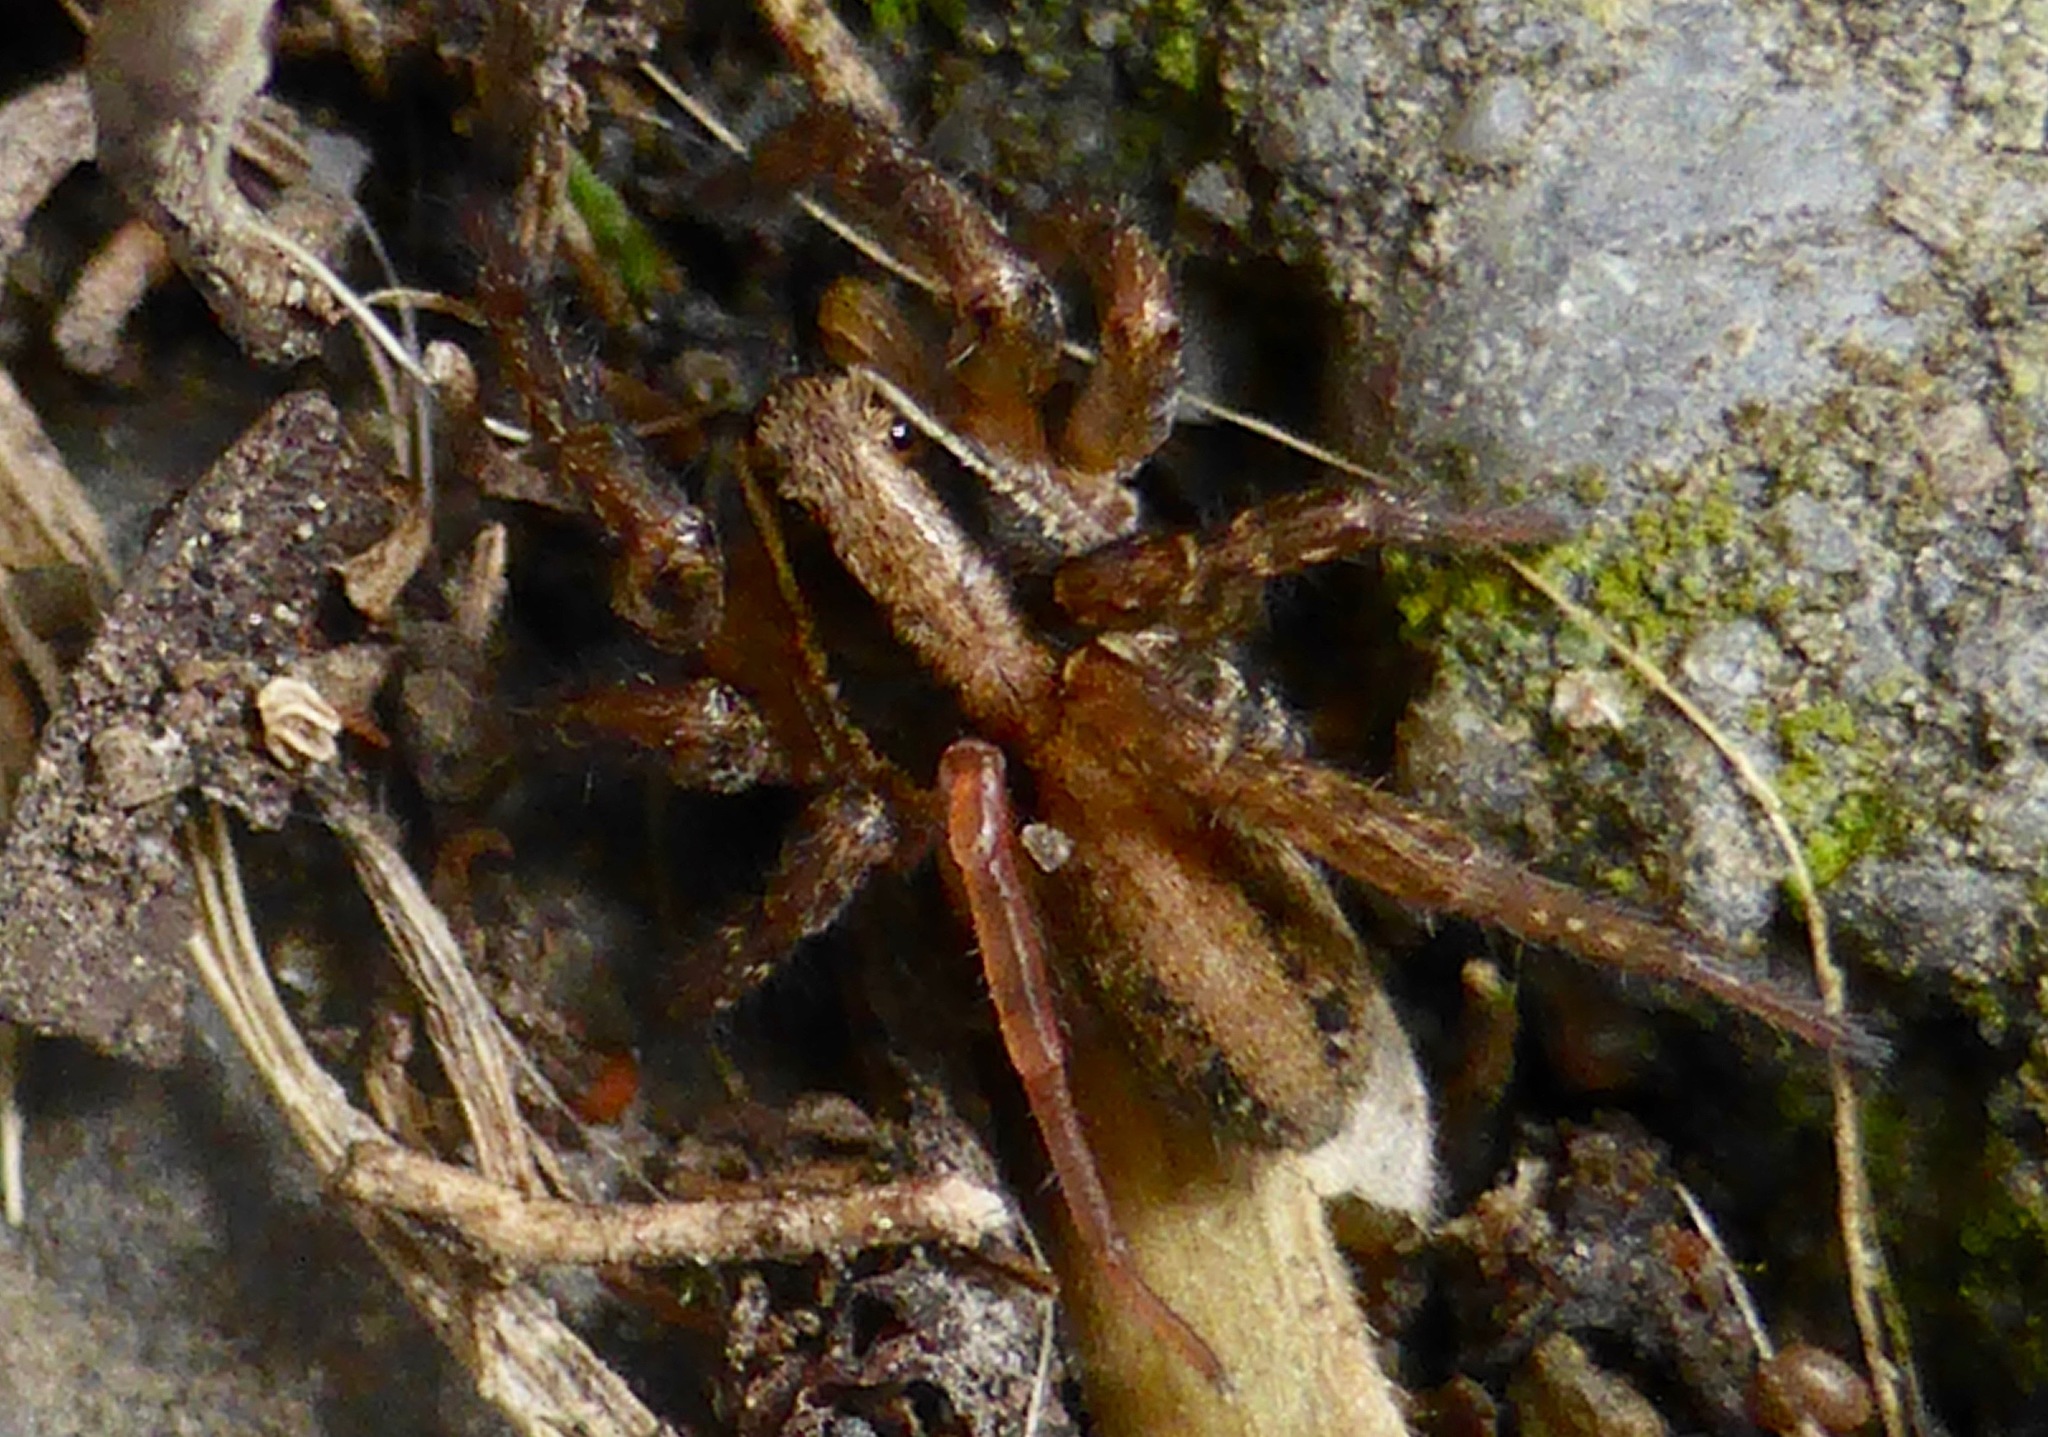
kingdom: Animalia
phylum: Arthropoda
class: Arachnida
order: Araneae
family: Lycosidae
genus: Anoteropsis
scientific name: Anoteropsis hilaris
